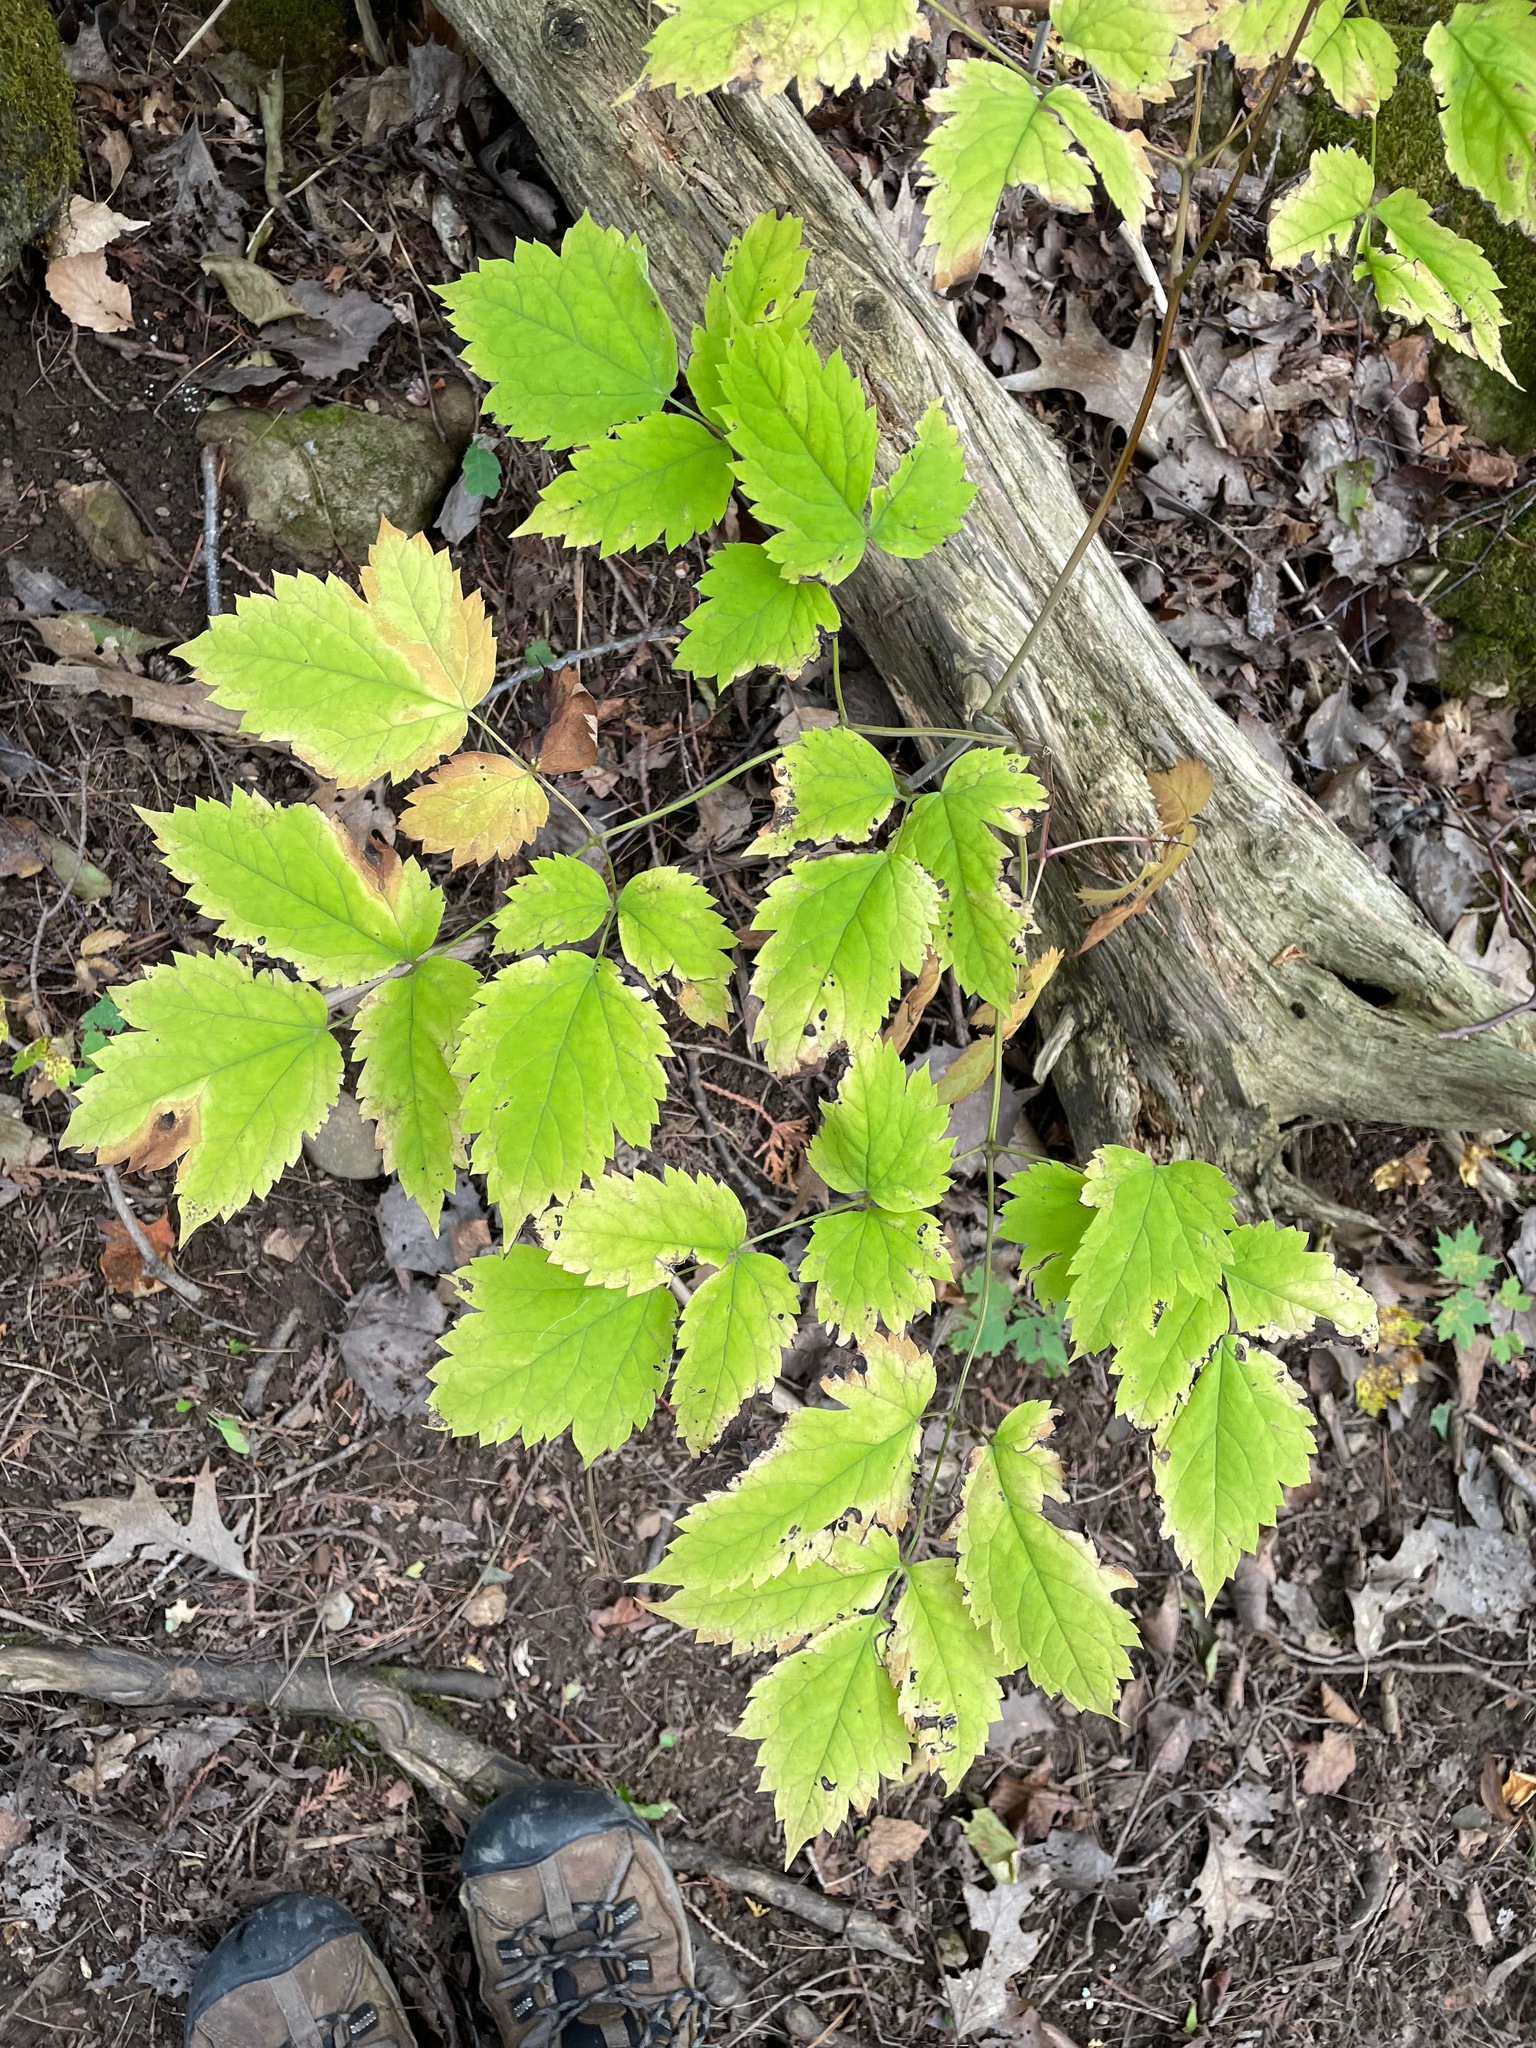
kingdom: Plantae
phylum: Tracheophyta
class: Magnoliopsida
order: Ranunculales
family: Ranunculaceae
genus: Actaea
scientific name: Actaea pachypoda
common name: Doll's-eyes
